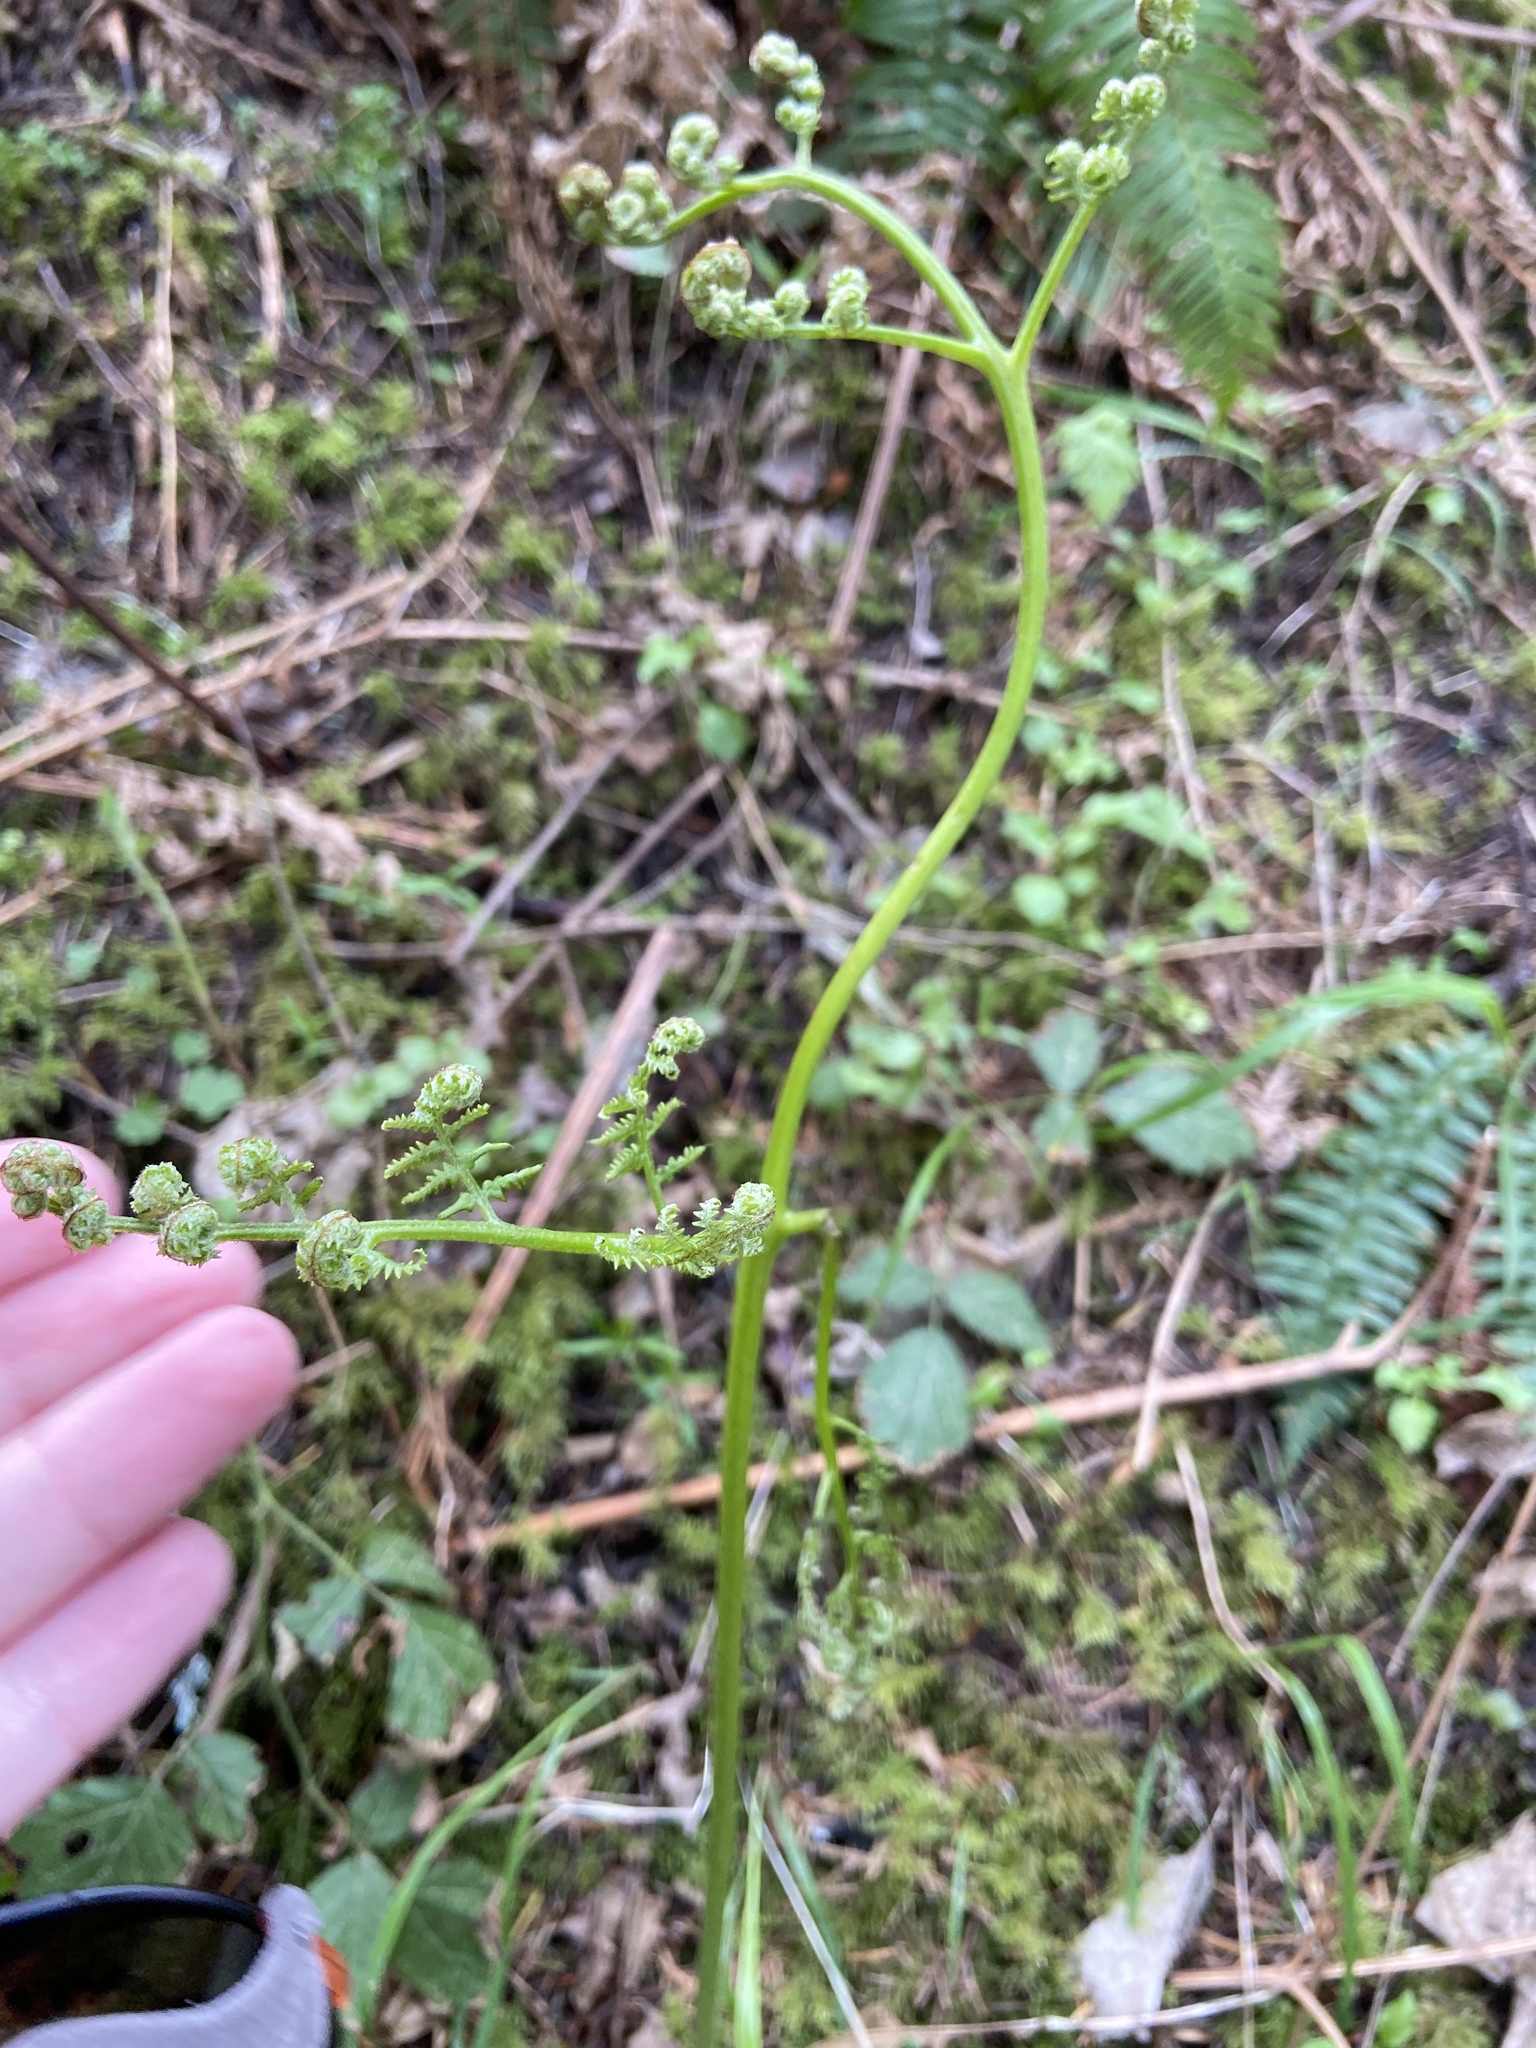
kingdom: Plantae
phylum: Tracheophyta
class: Polypodiopsida
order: Polypodiales
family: Dennstaedtiaceae
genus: Pteridium
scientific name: Pteridium aquilinum
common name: Bracken
